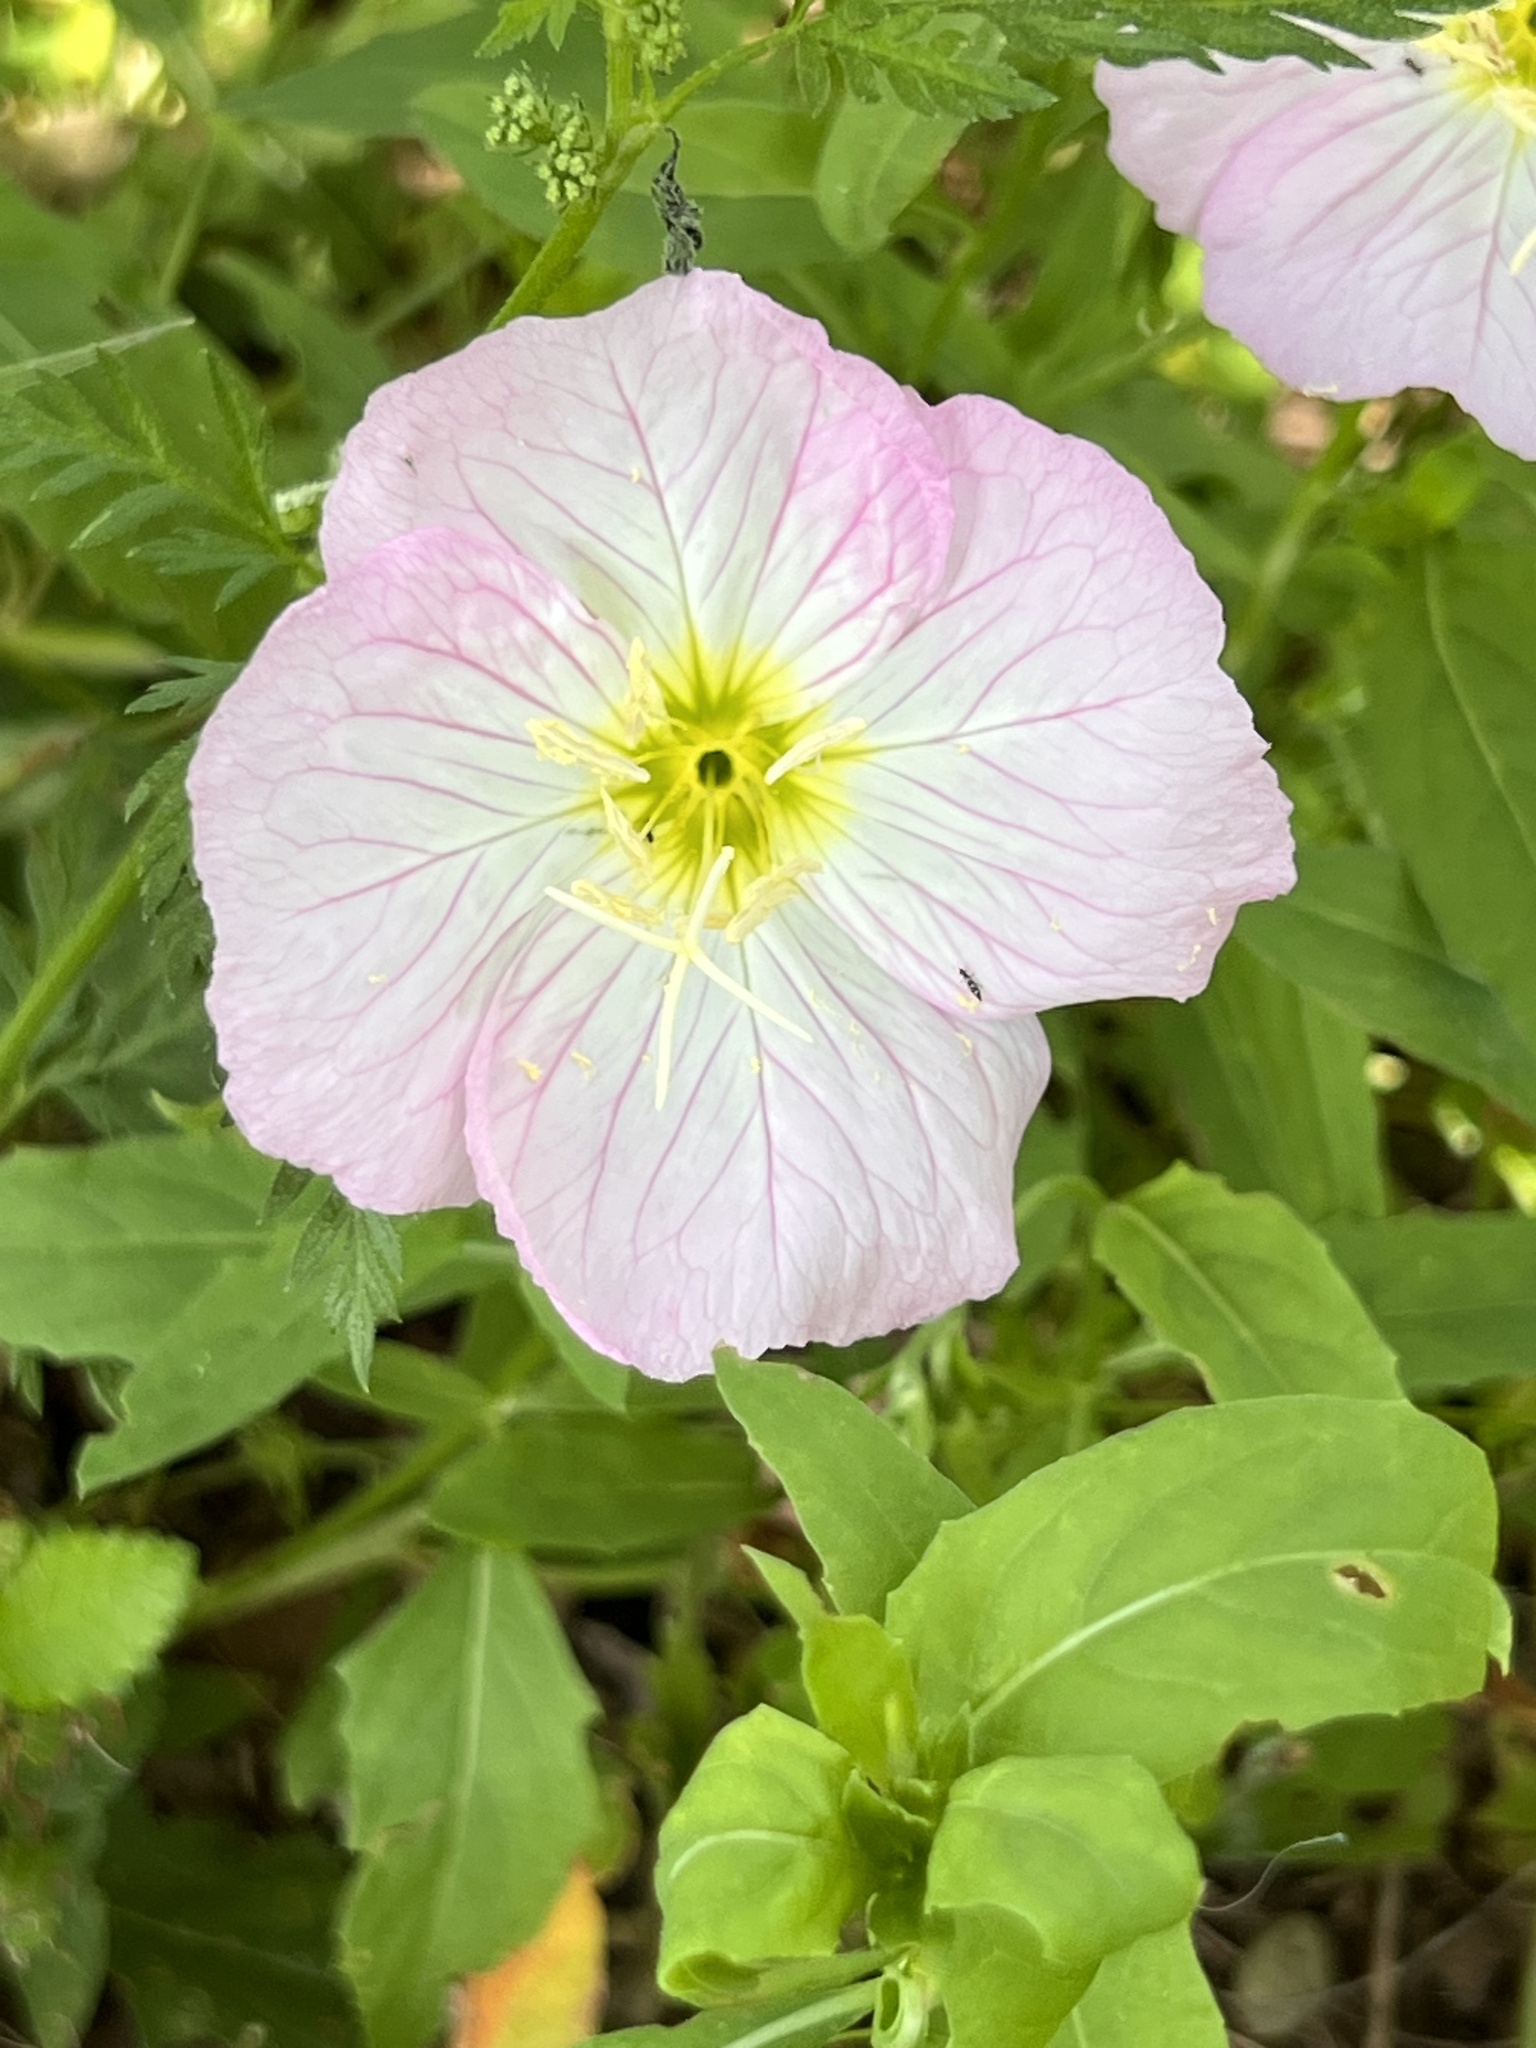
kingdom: Plantae
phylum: Tracheophyta
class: Magnoliopsida
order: Myrtales
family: Onagraceae
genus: Oenothera
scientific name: Oenothera speciosa
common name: White evening-primrose
